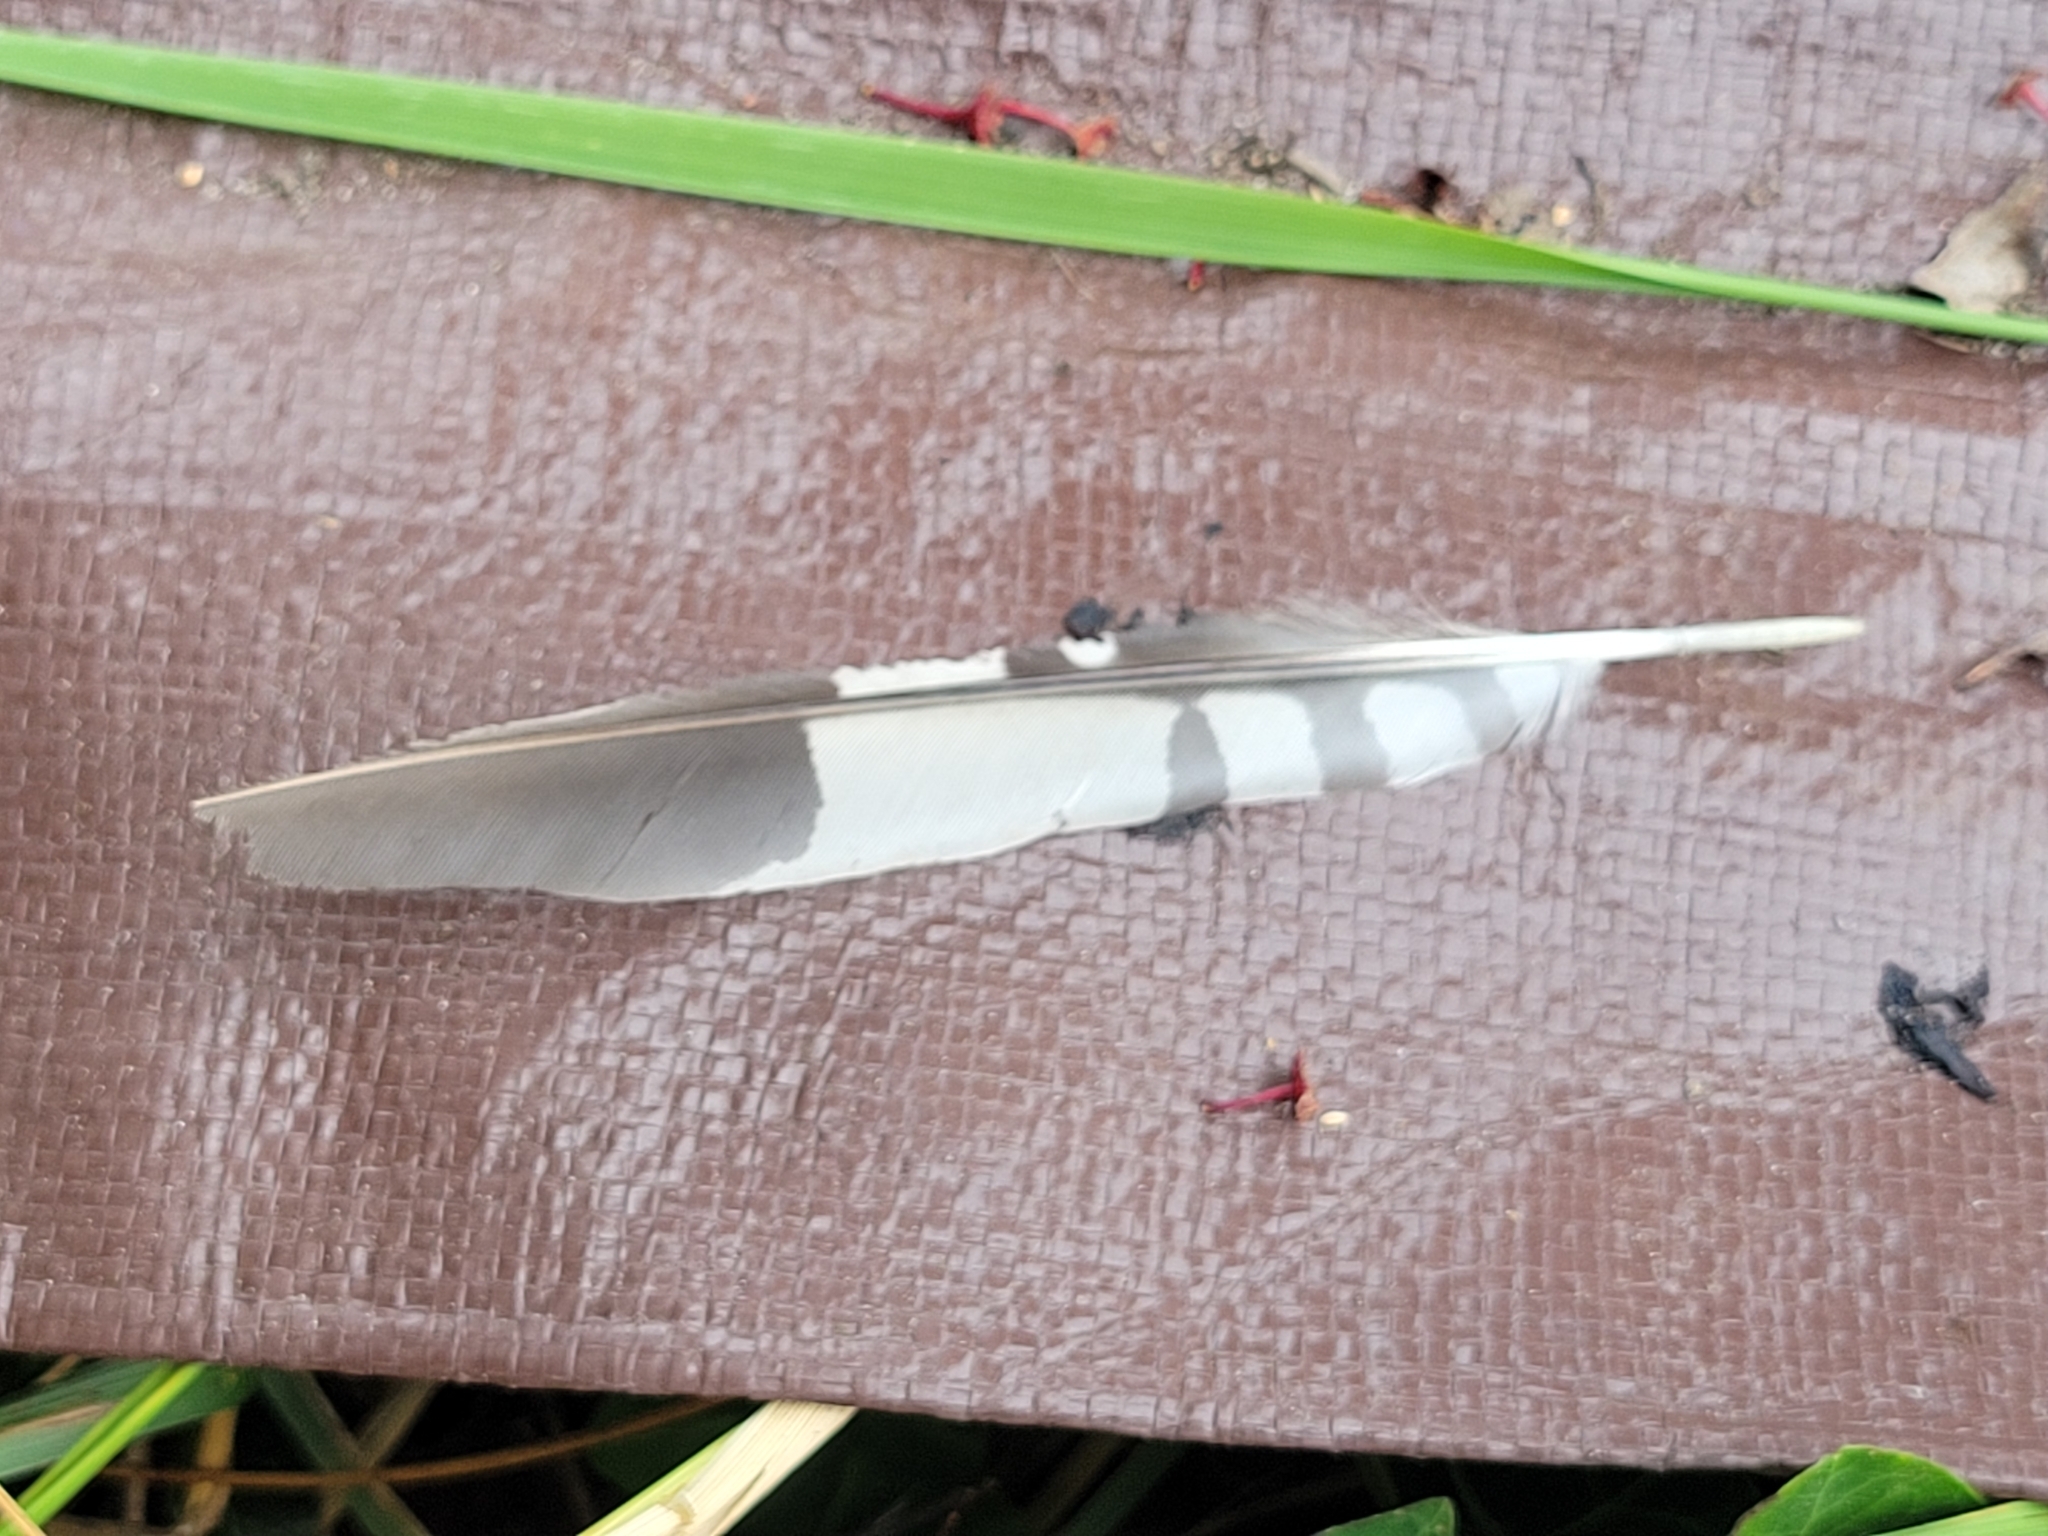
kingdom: Animalia
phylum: Chordata
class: Aves
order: Piciformes
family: Picidae
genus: Melanerpes
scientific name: Melanerpes carolinus
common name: Red-bellied woodpecker
